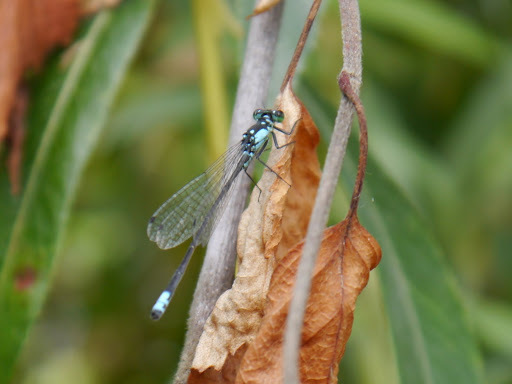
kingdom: Animalia
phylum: Arthropoda
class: Insecta
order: Odonata
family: Coenagrionidae
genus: Ischnura
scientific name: Ischnura cervula
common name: Pacific forktail
